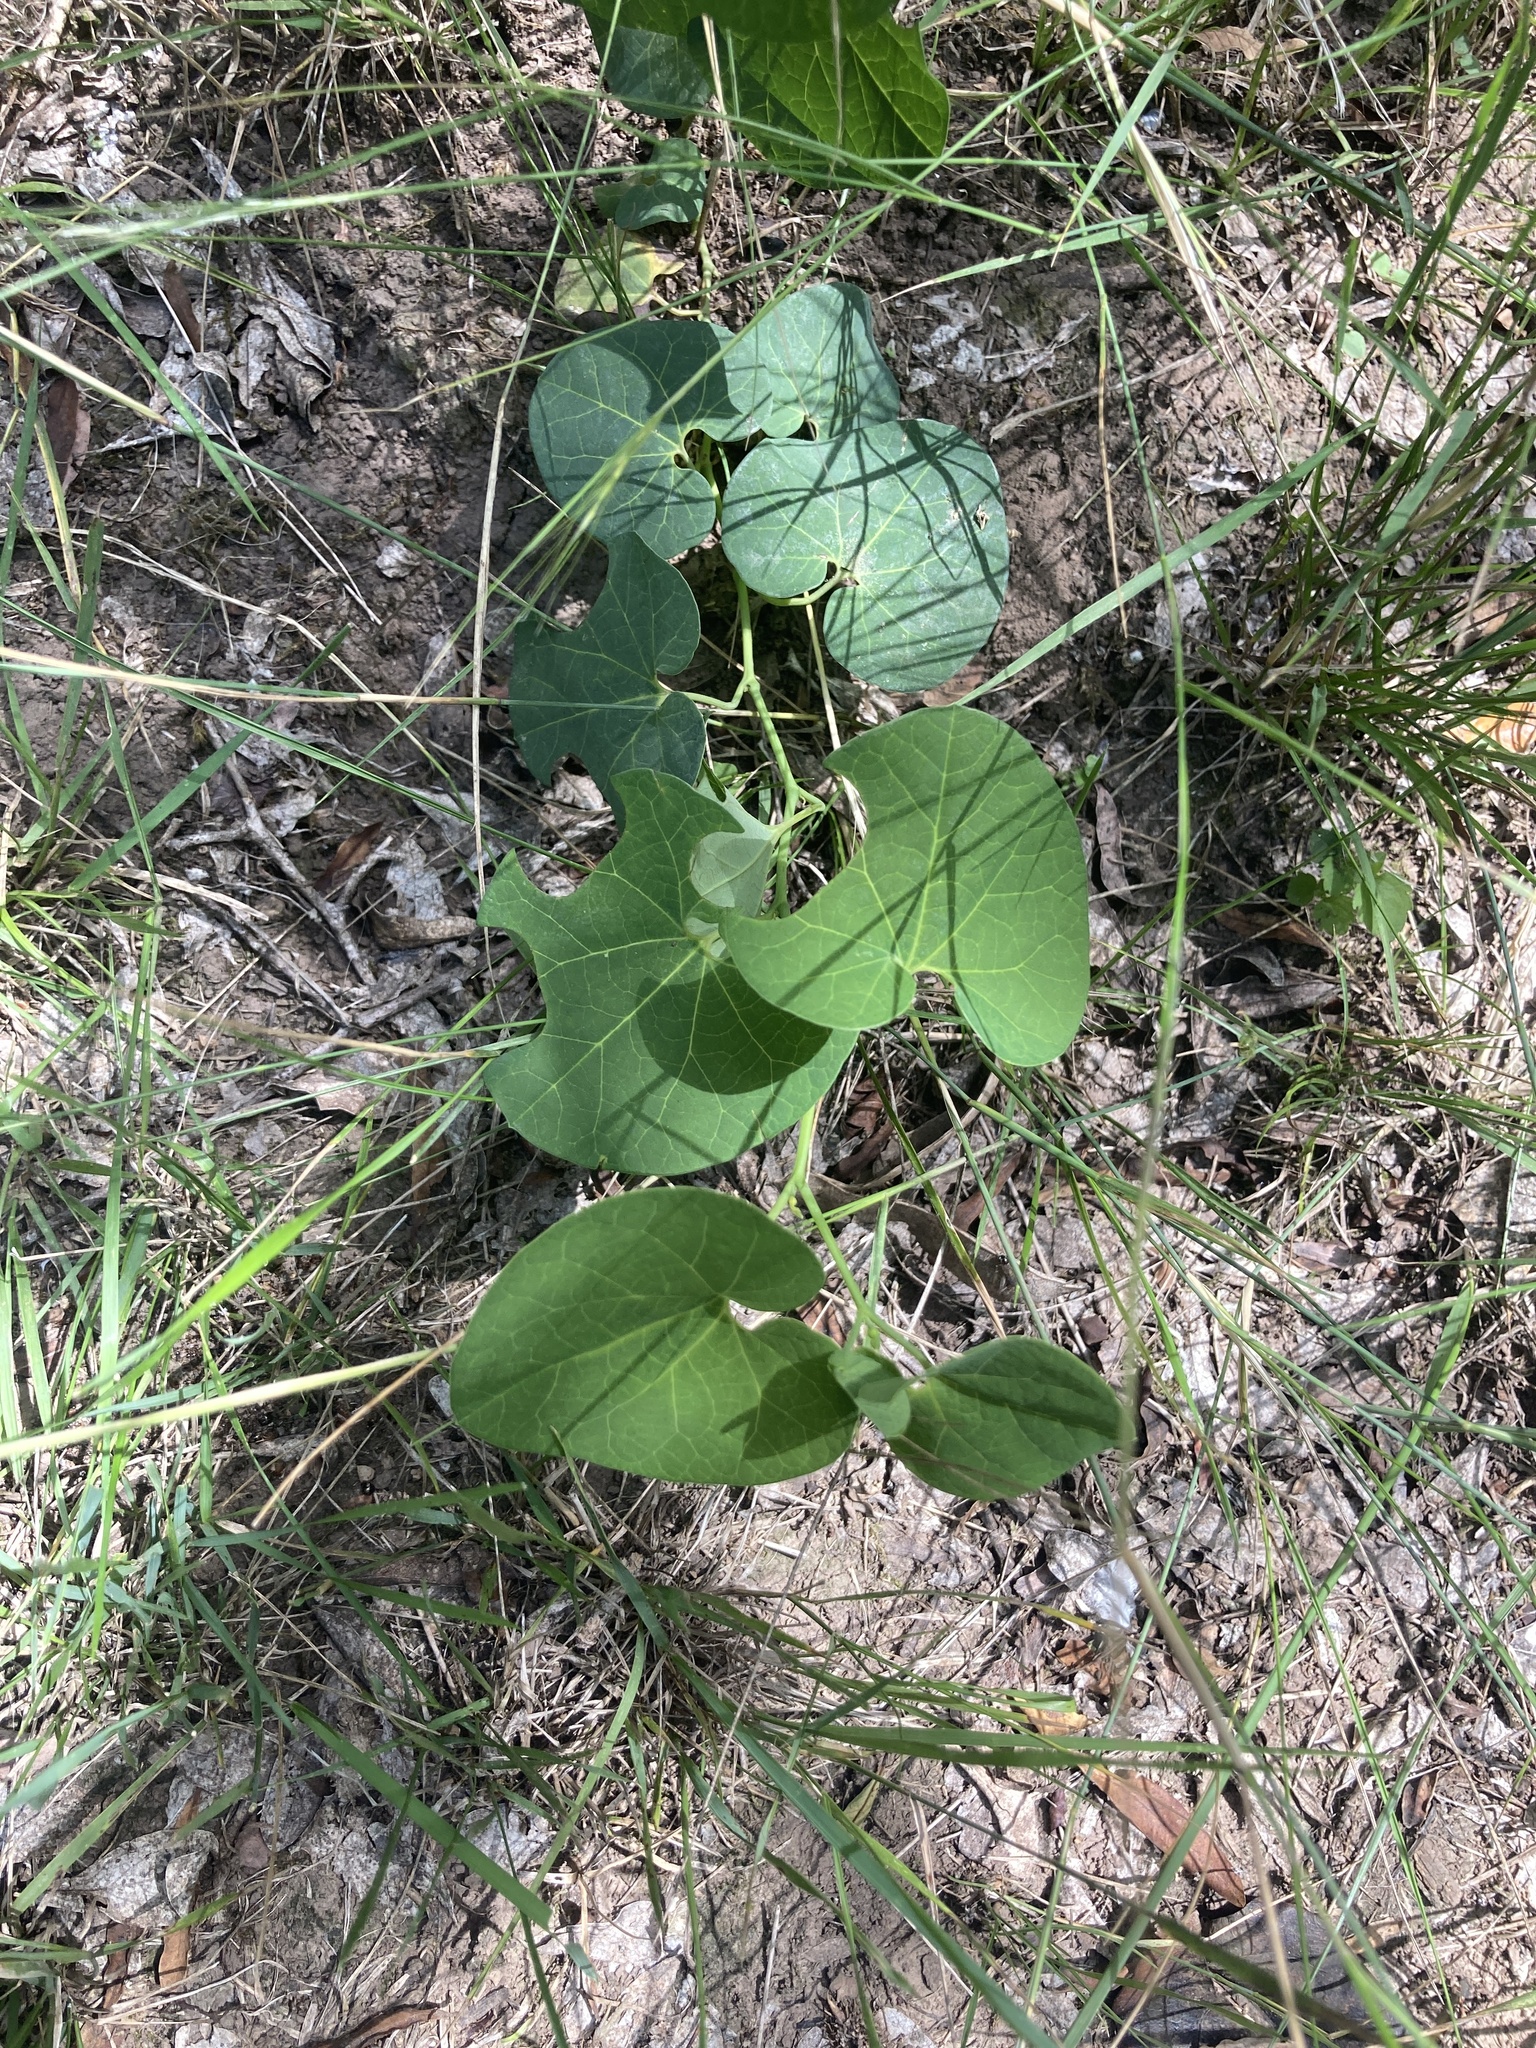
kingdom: Plantae
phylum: Tracheophyta
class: Magnoliopsida
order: Piperales
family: Aristolochiaceae
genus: Aristolochia
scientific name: Aristolochia fimbriata
